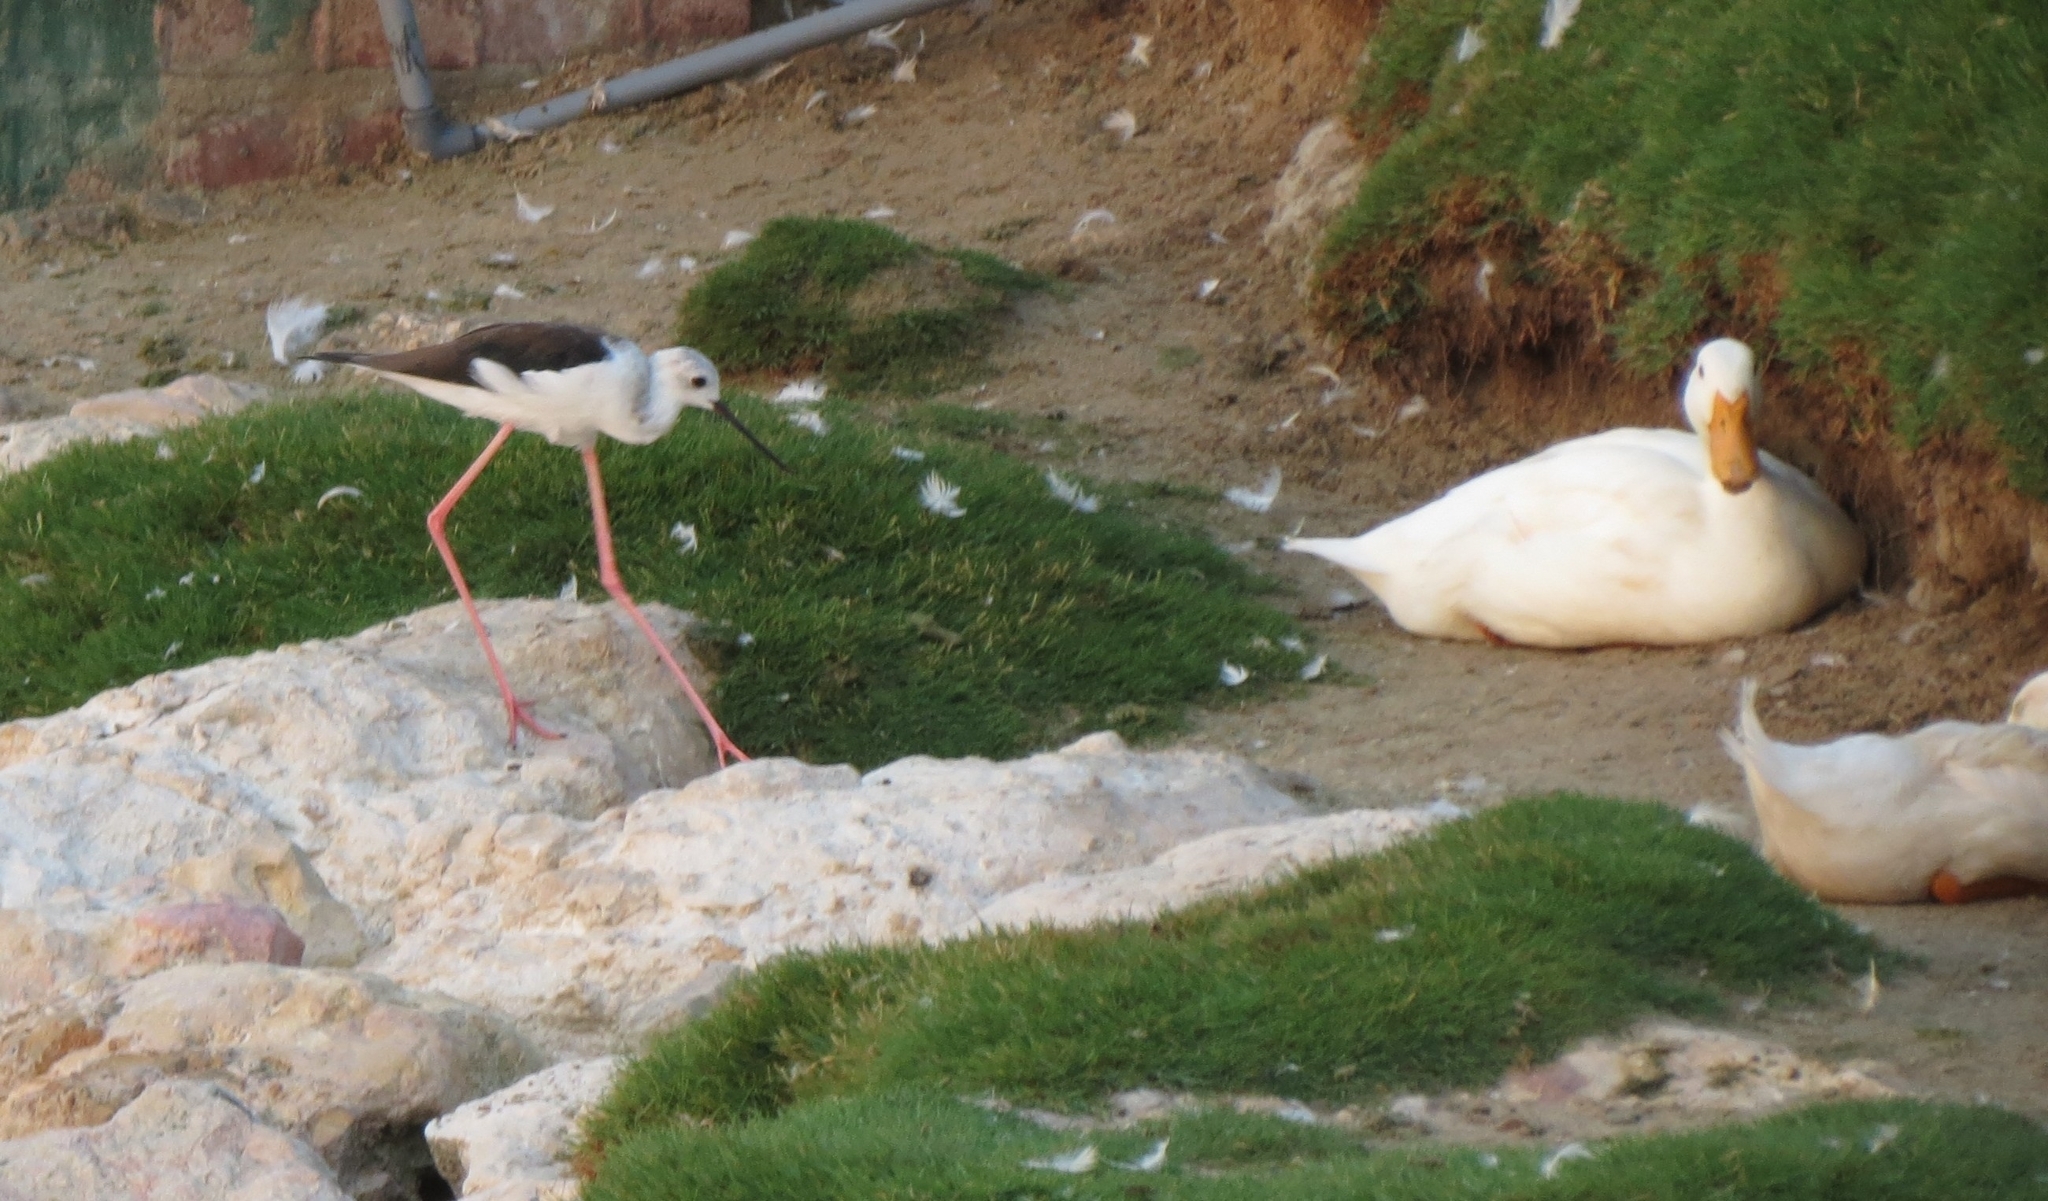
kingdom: Animalia
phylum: Chordata
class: Aves
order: Charadriiformes
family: Recurvirostridae
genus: Himantopus
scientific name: Himantopus himantopus
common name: Black-winged stilt
